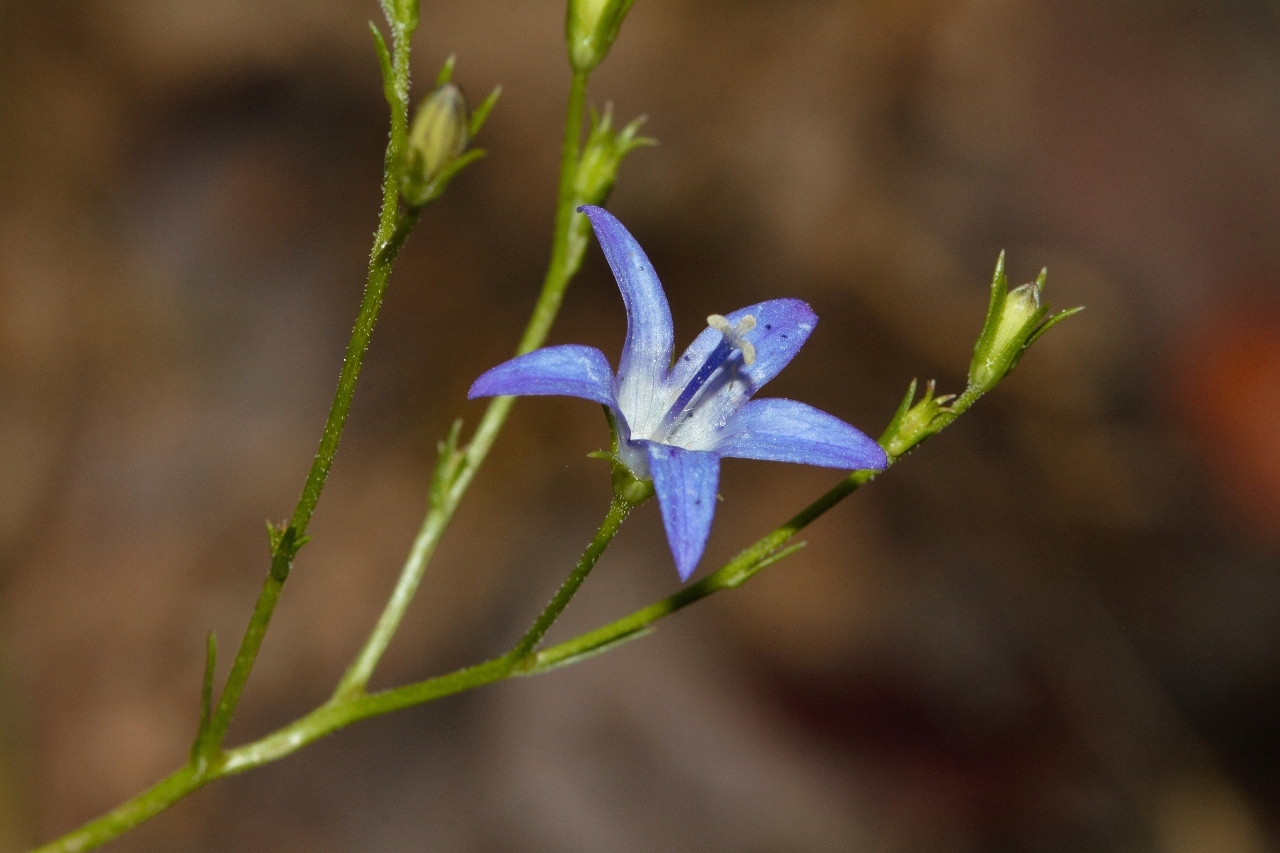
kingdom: Plantae
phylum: Tracheophyta
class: Magnoliopsida
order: Asterales
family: Campanulaceae
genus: Wahlenbergia
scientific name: Wahlenbergia denticulata
